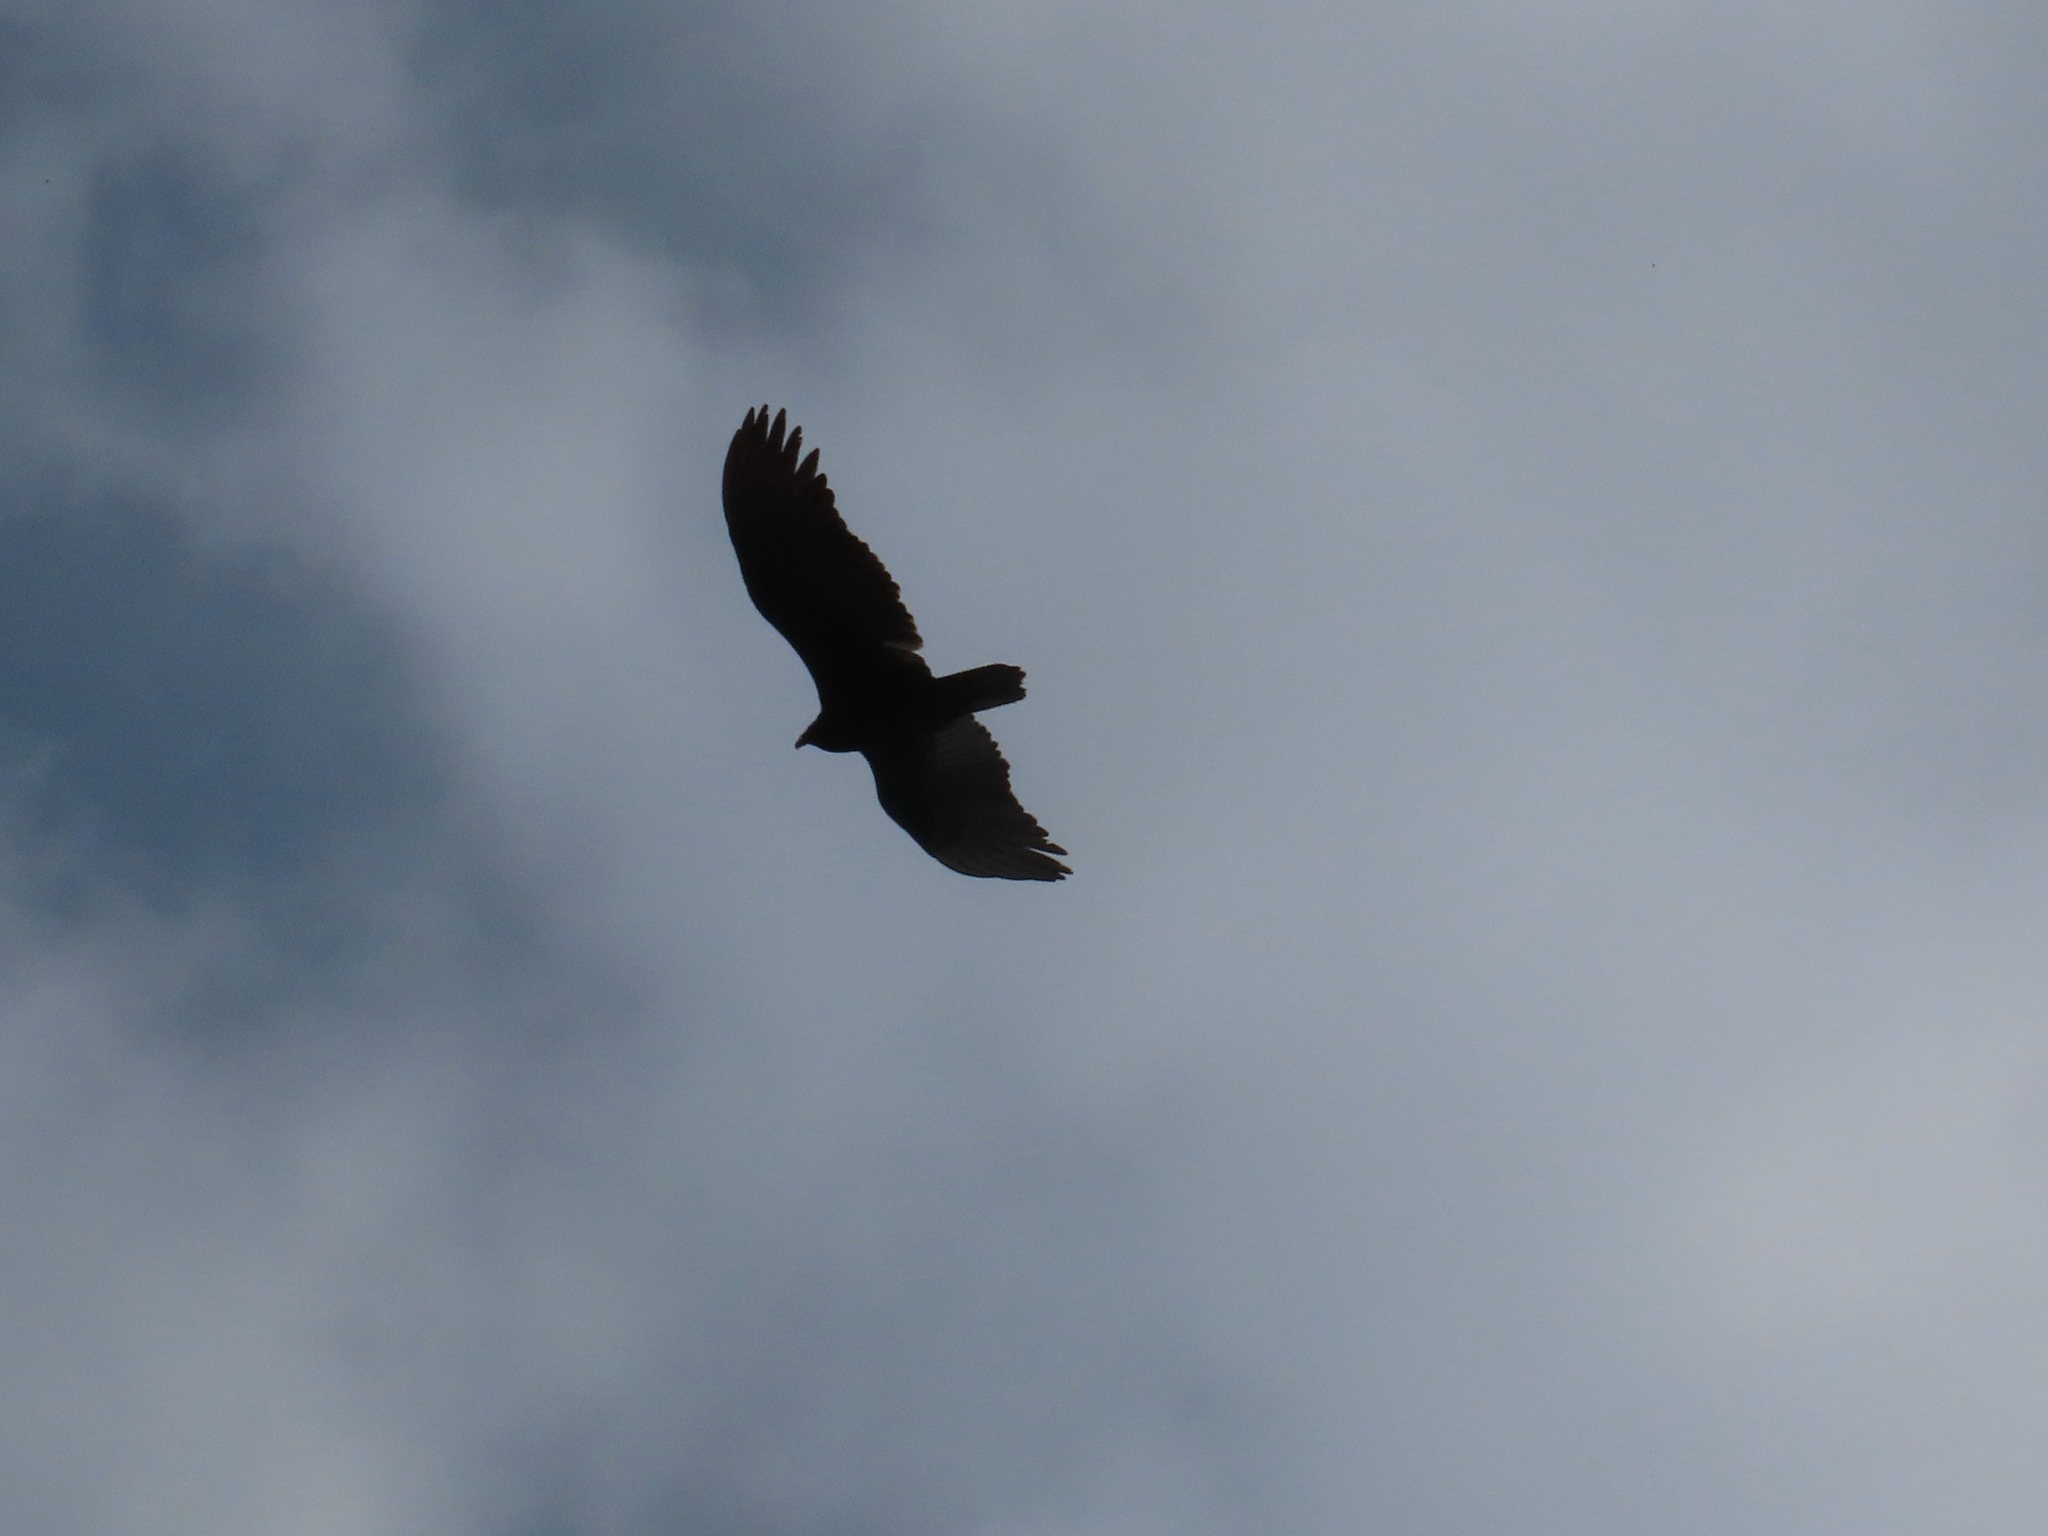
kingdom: Animalia
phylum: Chordata
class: Aves
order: Accipitriformes
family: Cathartidae
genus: Cathartes
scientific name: Cathartes aura
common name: Turkey vulture
